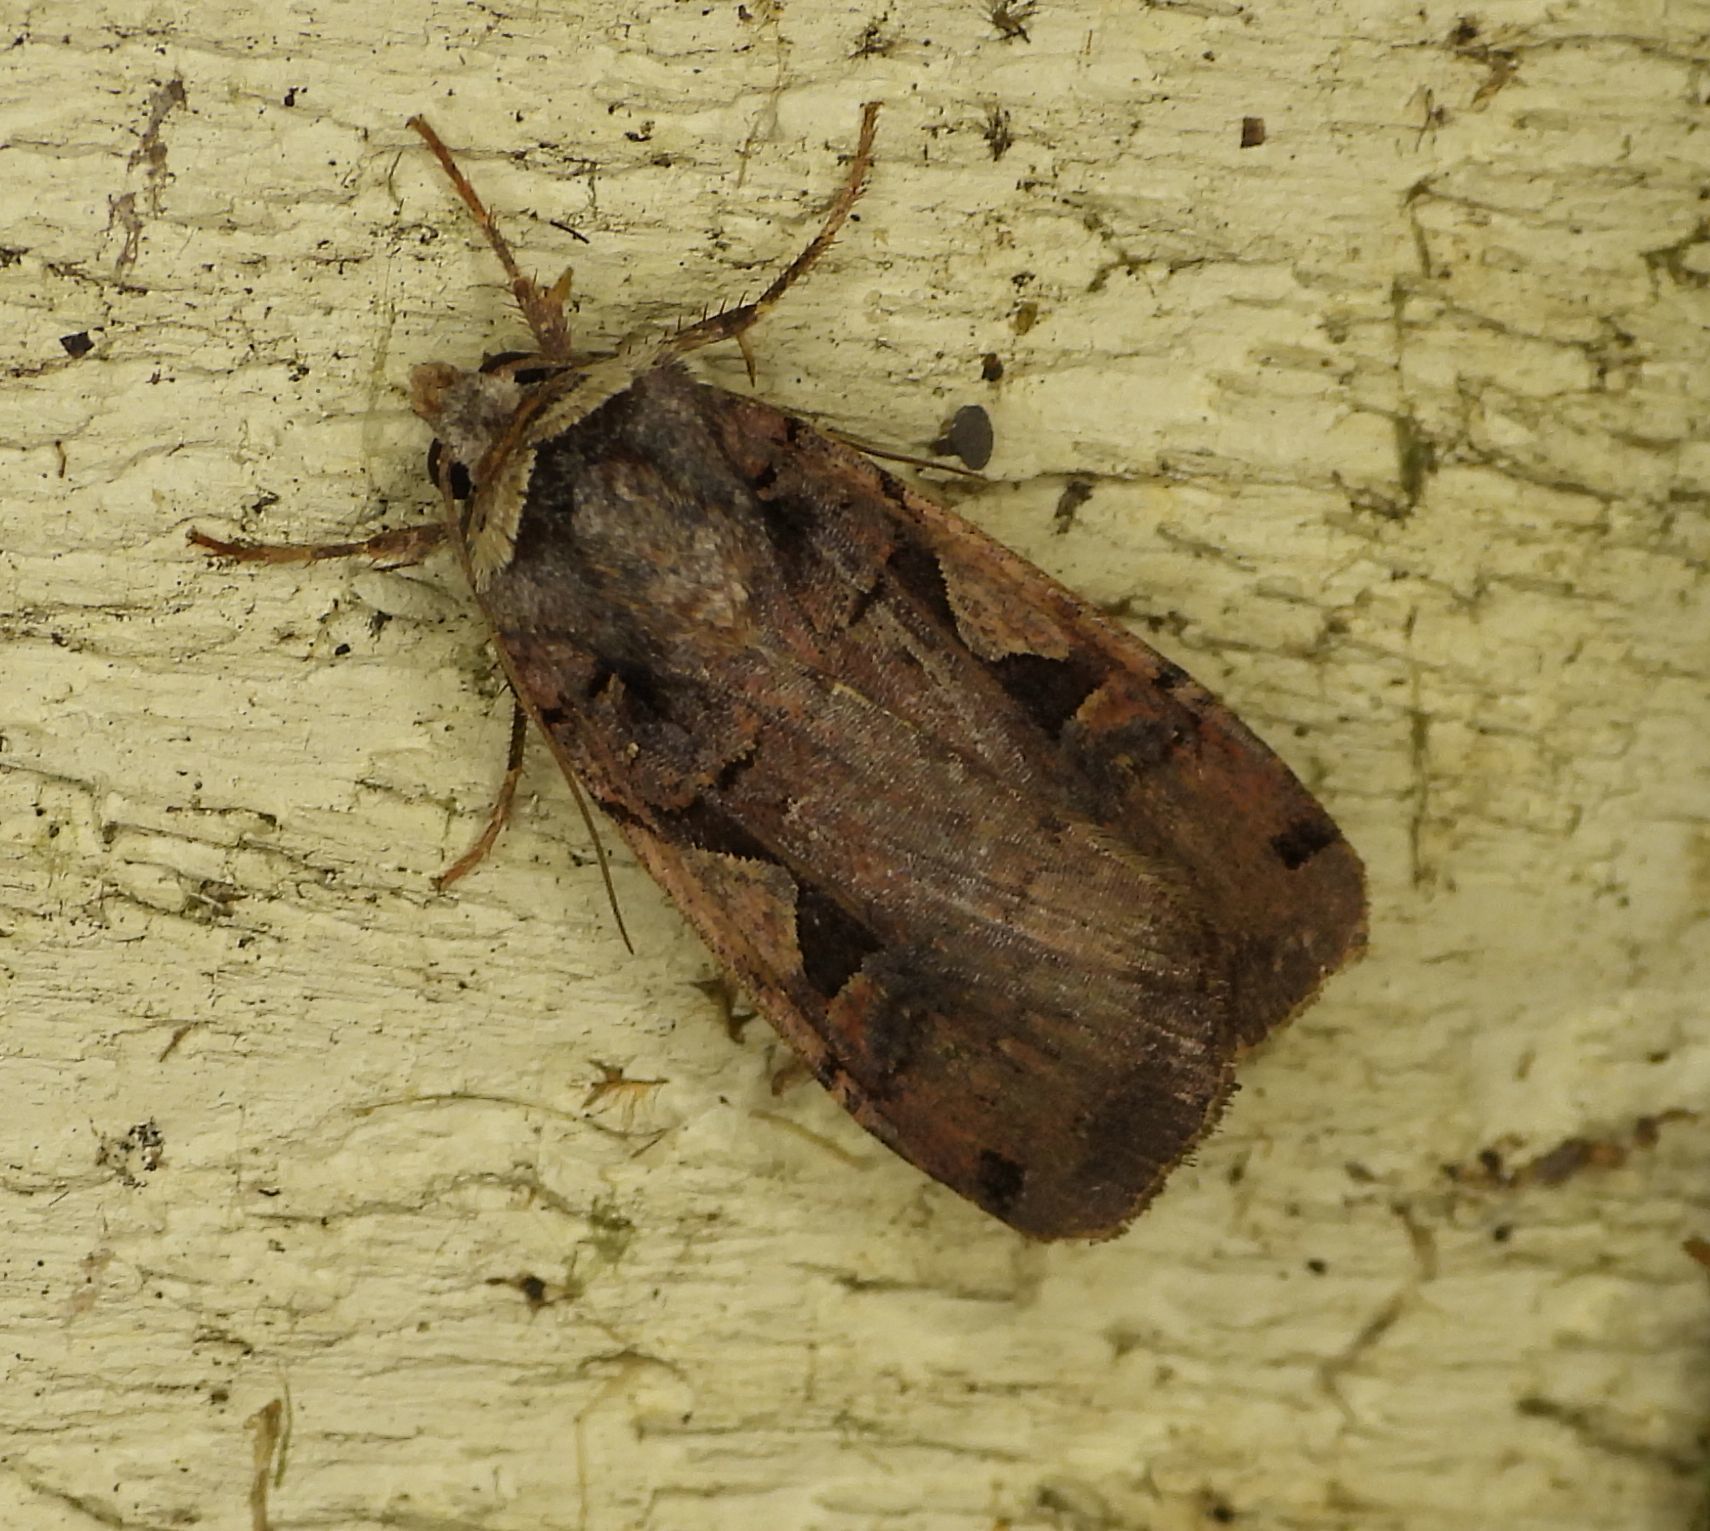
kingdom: Animalia
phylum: Arthropoda
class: Insecta
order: Lepidoptera
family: Noctuidae
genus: Xestia
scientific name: Xestia
